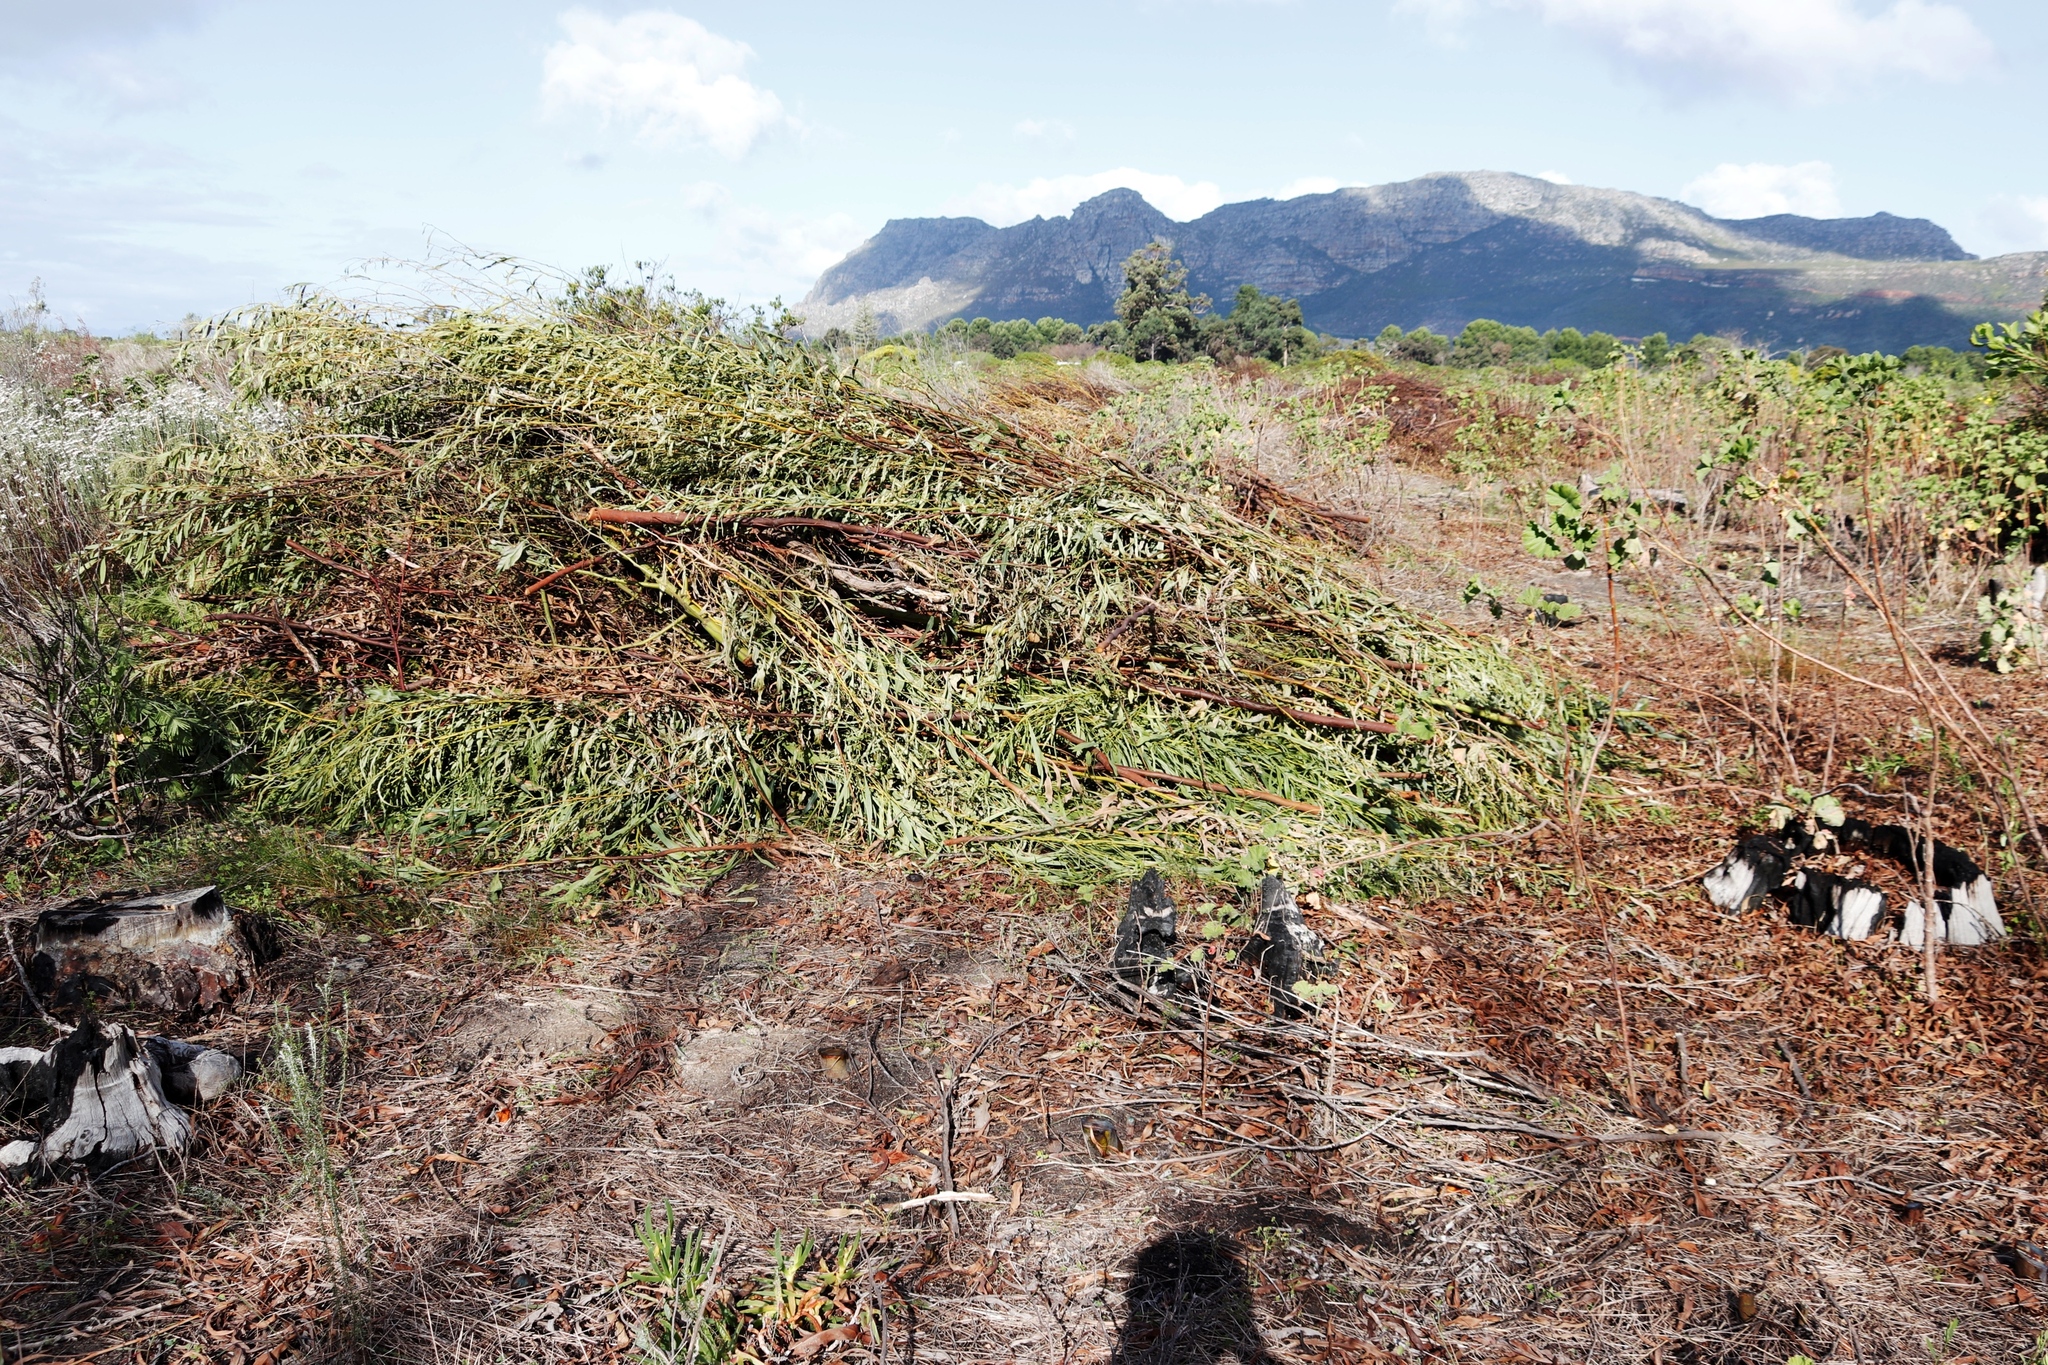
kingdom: Plantae
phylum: Tracheophyta
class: Magnoliopsida
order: Fabales
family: Fabaceae
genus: Acacia
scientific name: Acacia saligna
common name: Orange wattle
